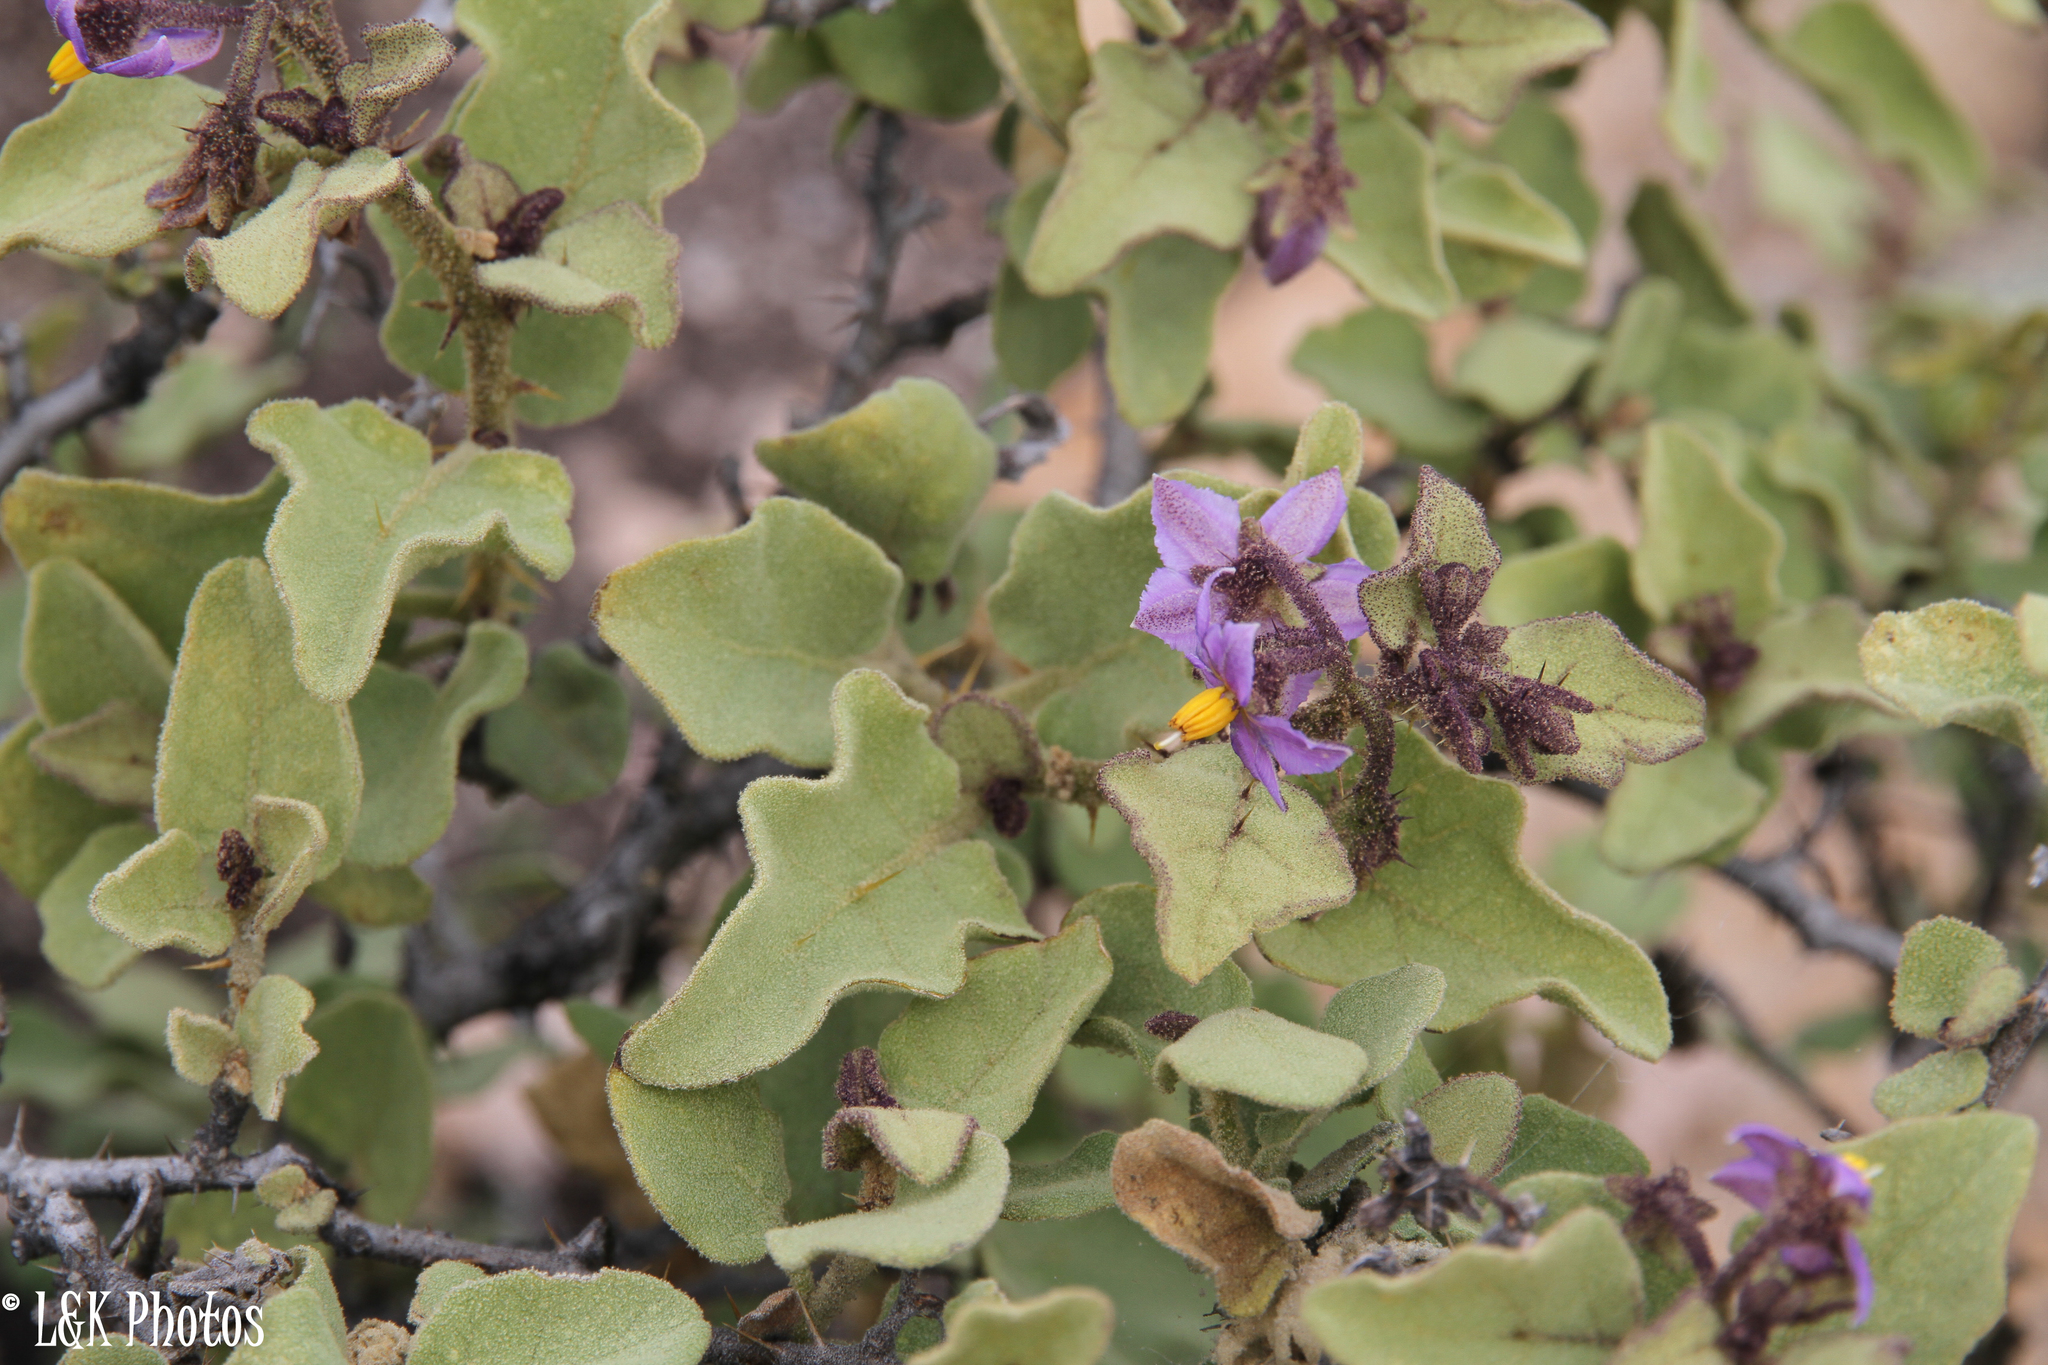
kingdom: Plantae
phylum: Tracheophyta
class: Magnoliopsida
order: Solanales
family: Solanaceae
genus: Solanum
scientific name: Solanum tomentosum
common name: Wild aubergine
